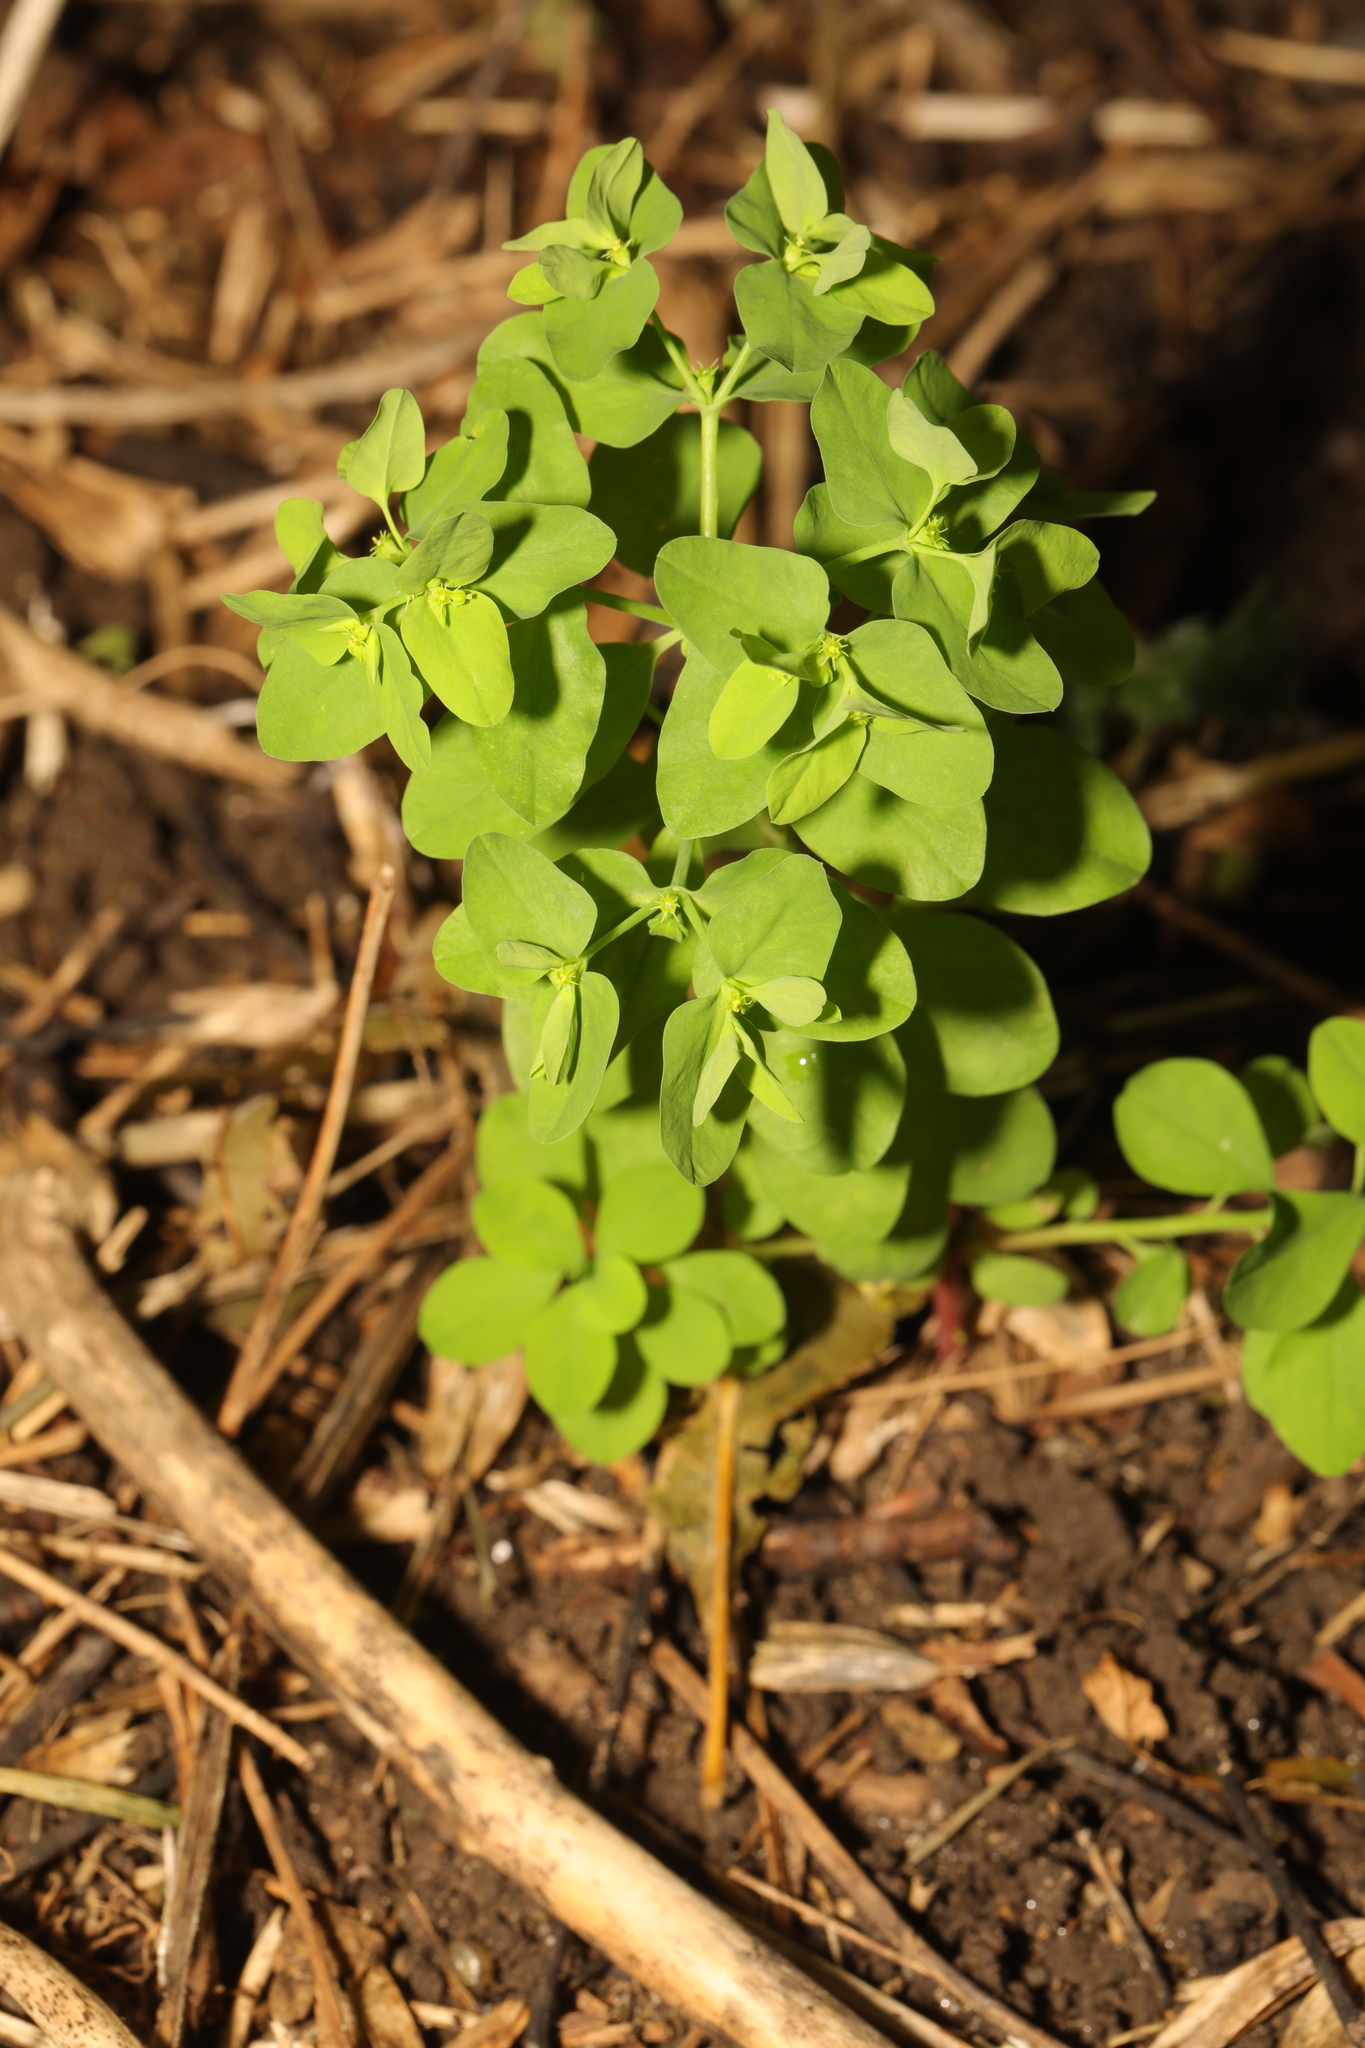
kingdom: Plantae
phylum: Tracheophyta
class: Magnoliopsida
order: Malpighiales
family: Euphorbiaceae
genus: Euphorbia
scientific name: Euphorbia peplus
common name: Petty spurge
